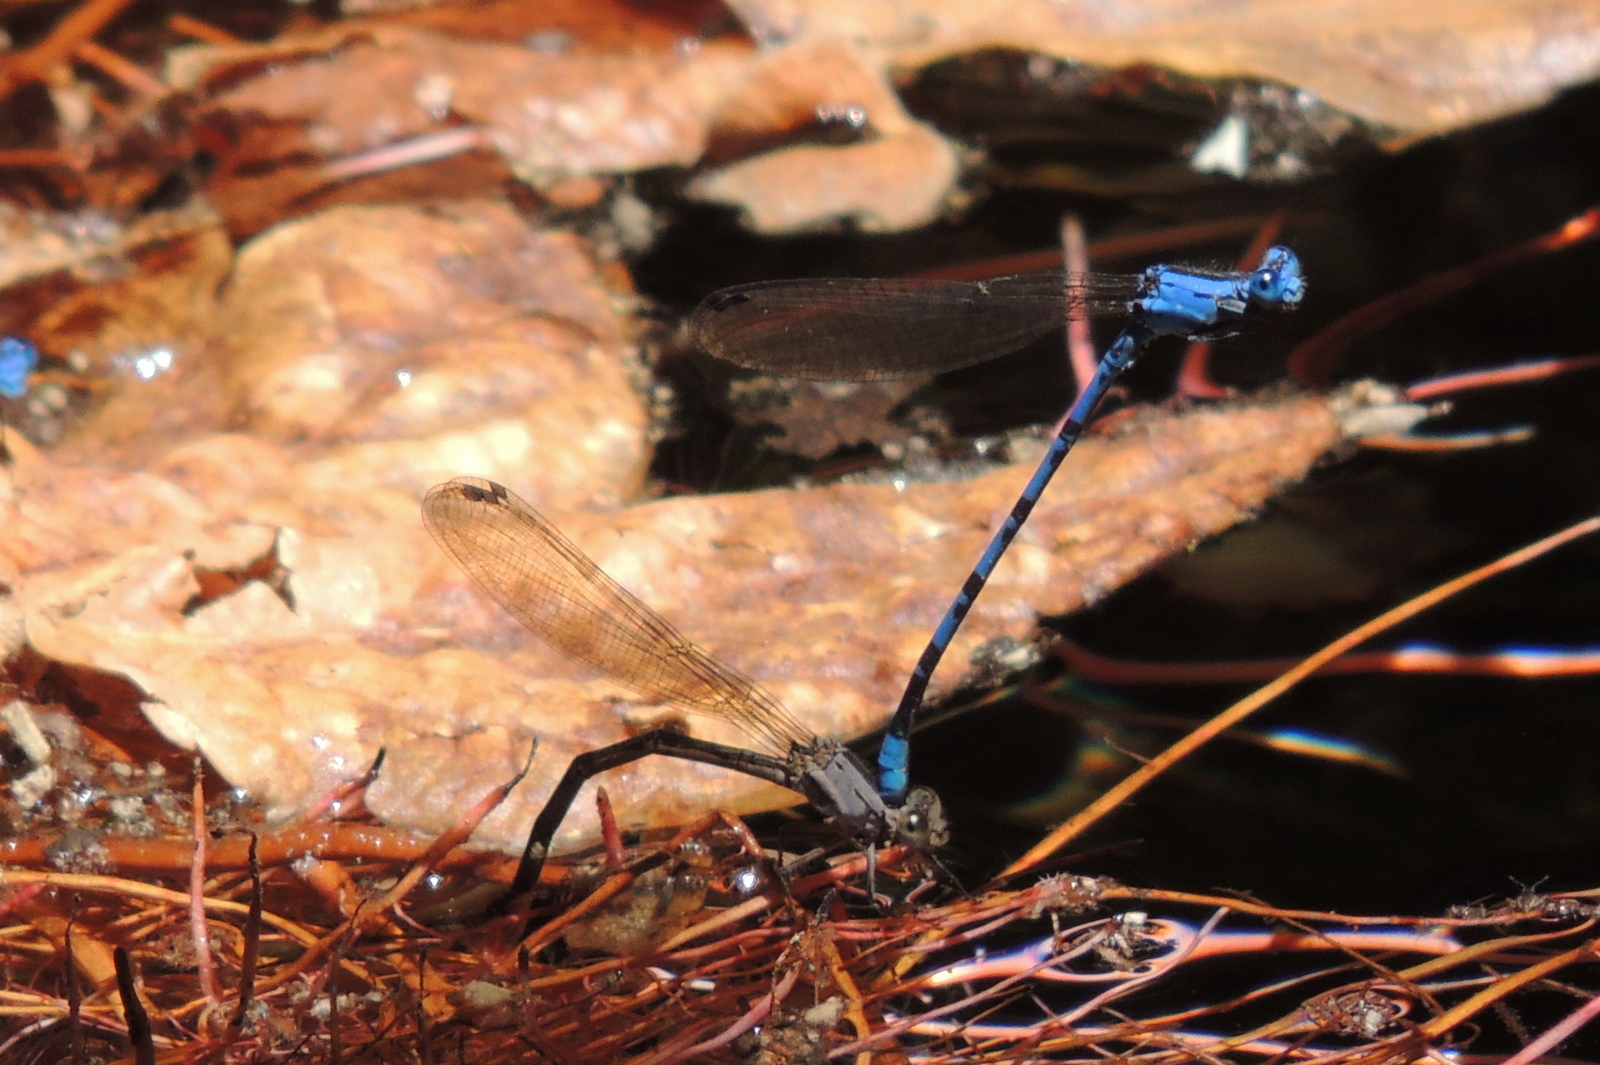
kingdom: Animalia
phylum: Arthropoda
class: Insecta
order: Odonata
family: Coenagrionidae
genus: Argia
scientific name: Argia vivida
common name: Vivid dancer
